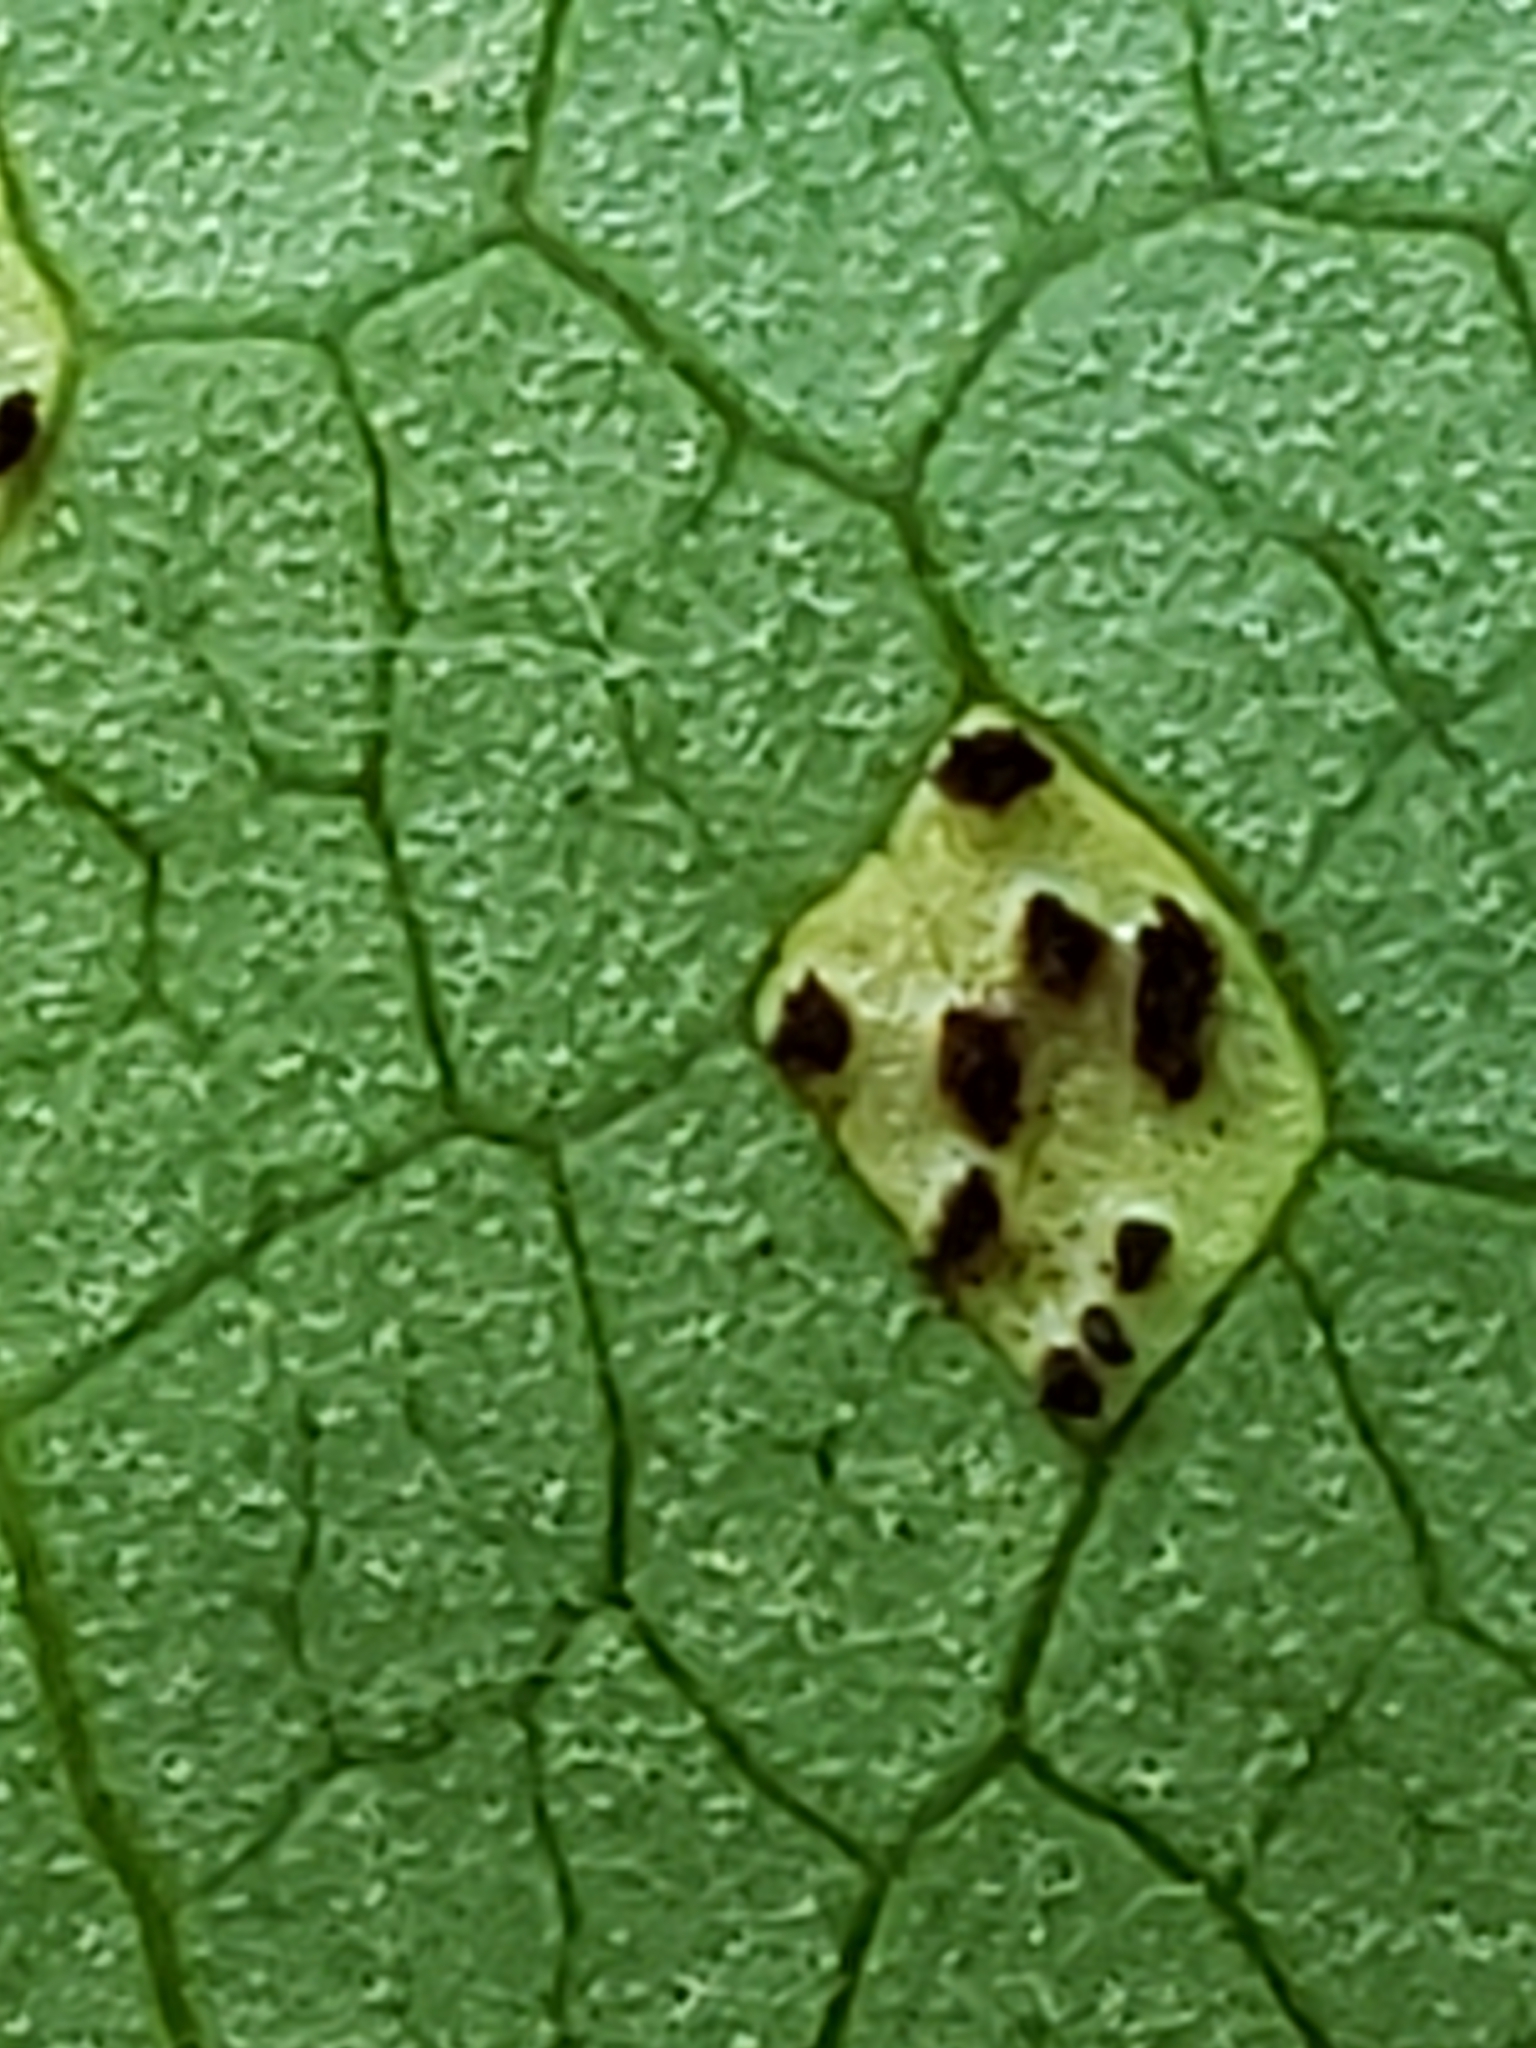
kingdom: Fungi
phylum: Basidiomycota
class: Pucciniomycetes
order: Pucciniales
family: Pucciniaceae
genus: Puccinia
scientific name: Puccinia podophylli
